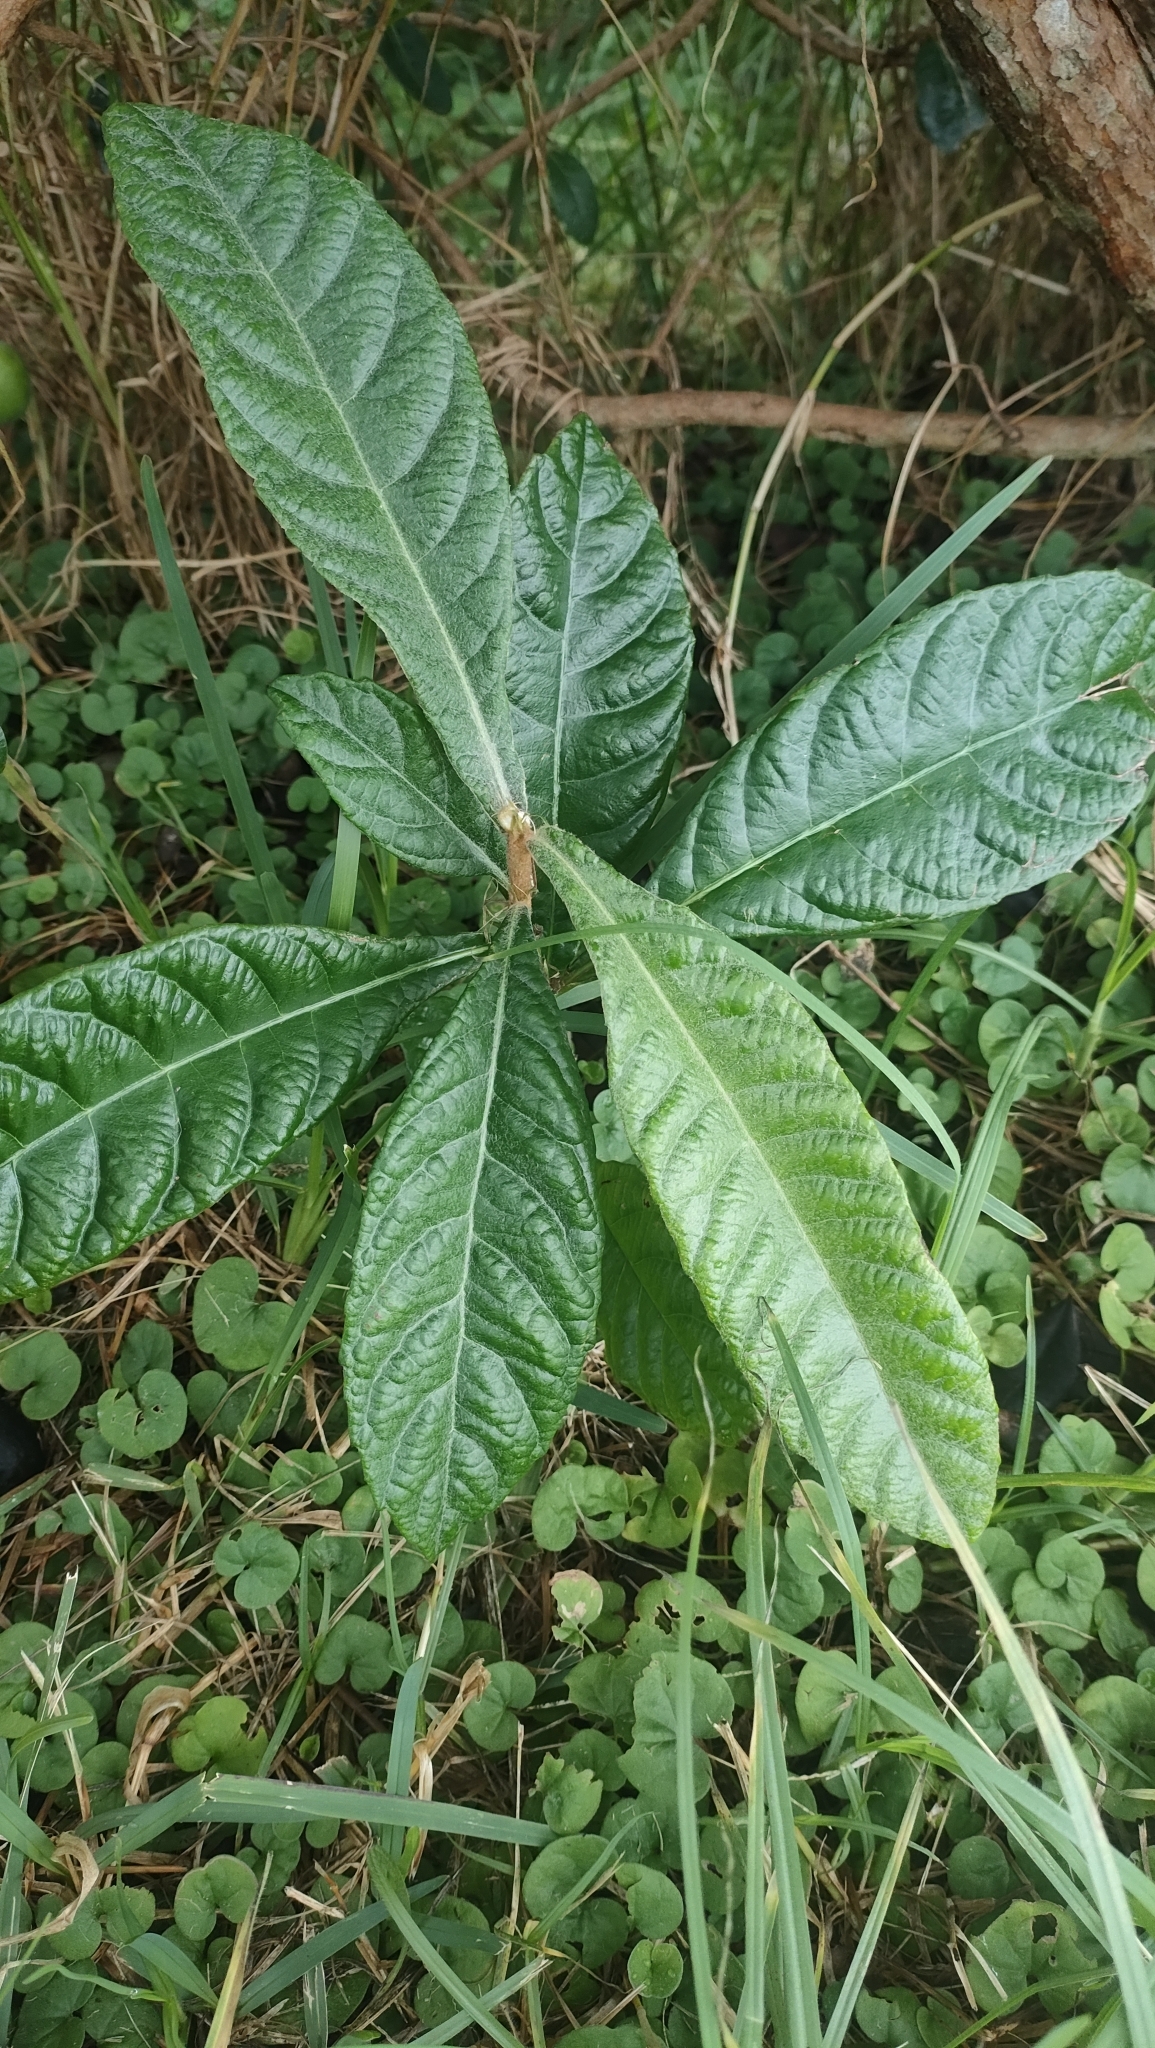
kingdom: Plantae
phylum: Tracheophyta
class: Magnoliopsida
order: Rosales
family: Rosaceae
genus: Rhaphiolepis
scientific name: Rhaphiolepis bibas
